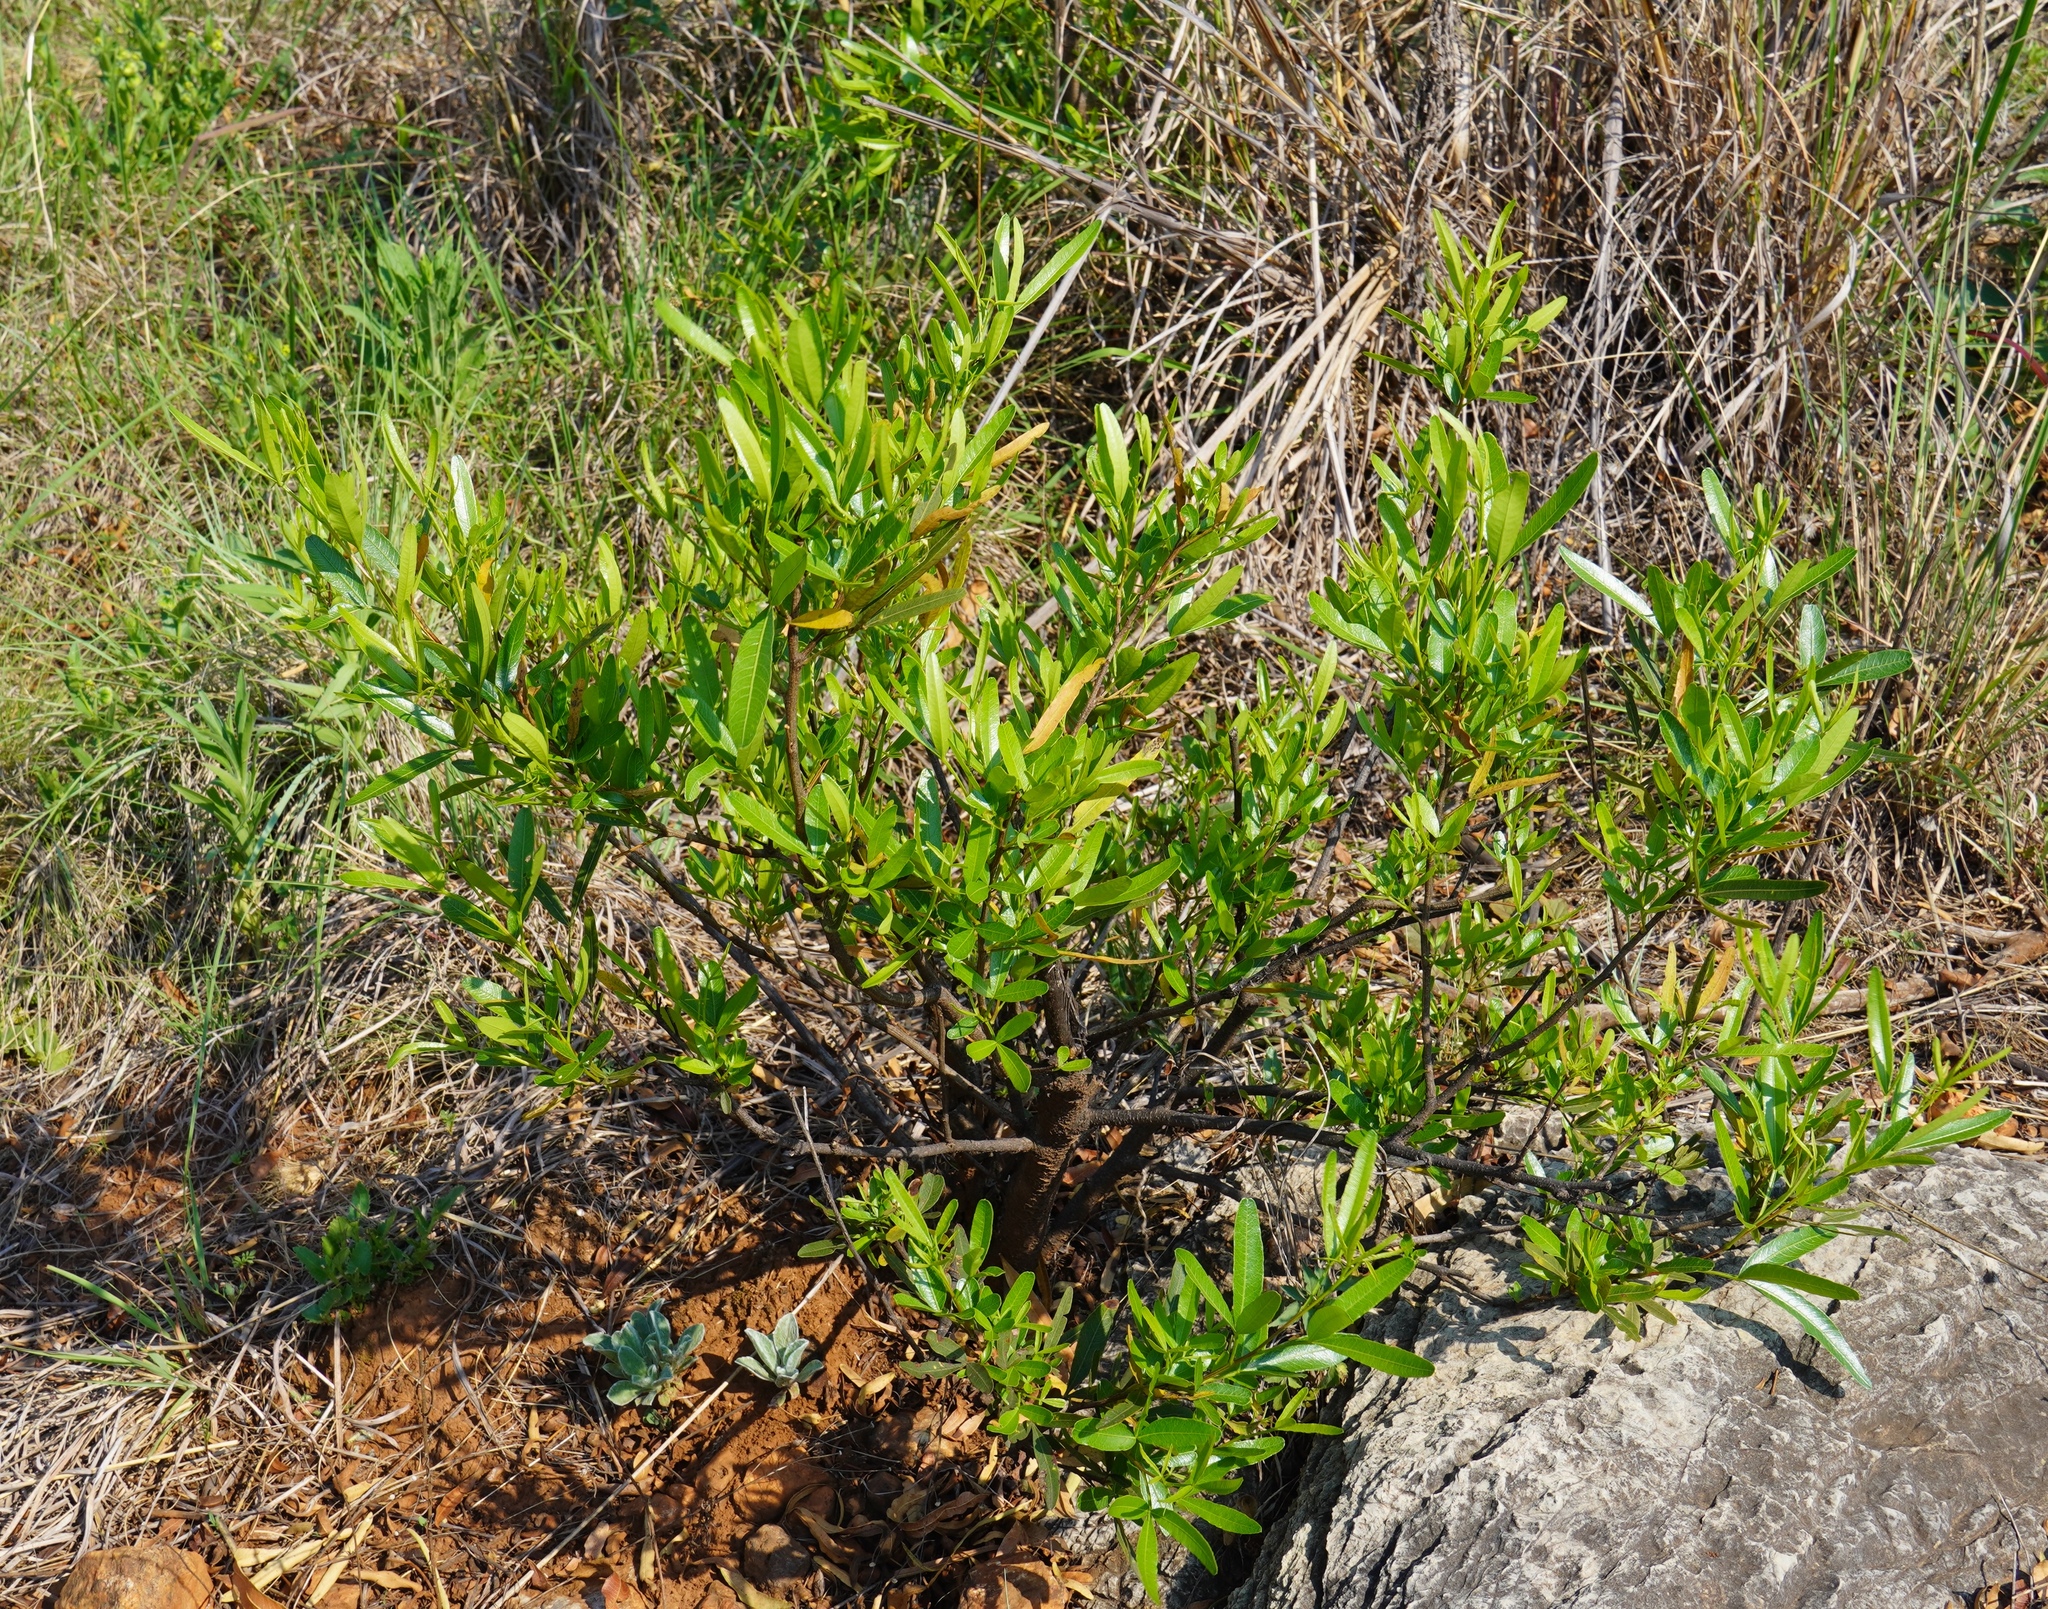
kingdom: Plantae
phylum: Tracheophyta
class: Magnoliopsida
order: Sapindales
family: Sapindaceae
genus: Dodonaea
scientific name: Dodonaea viscosa
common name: Hopbush
